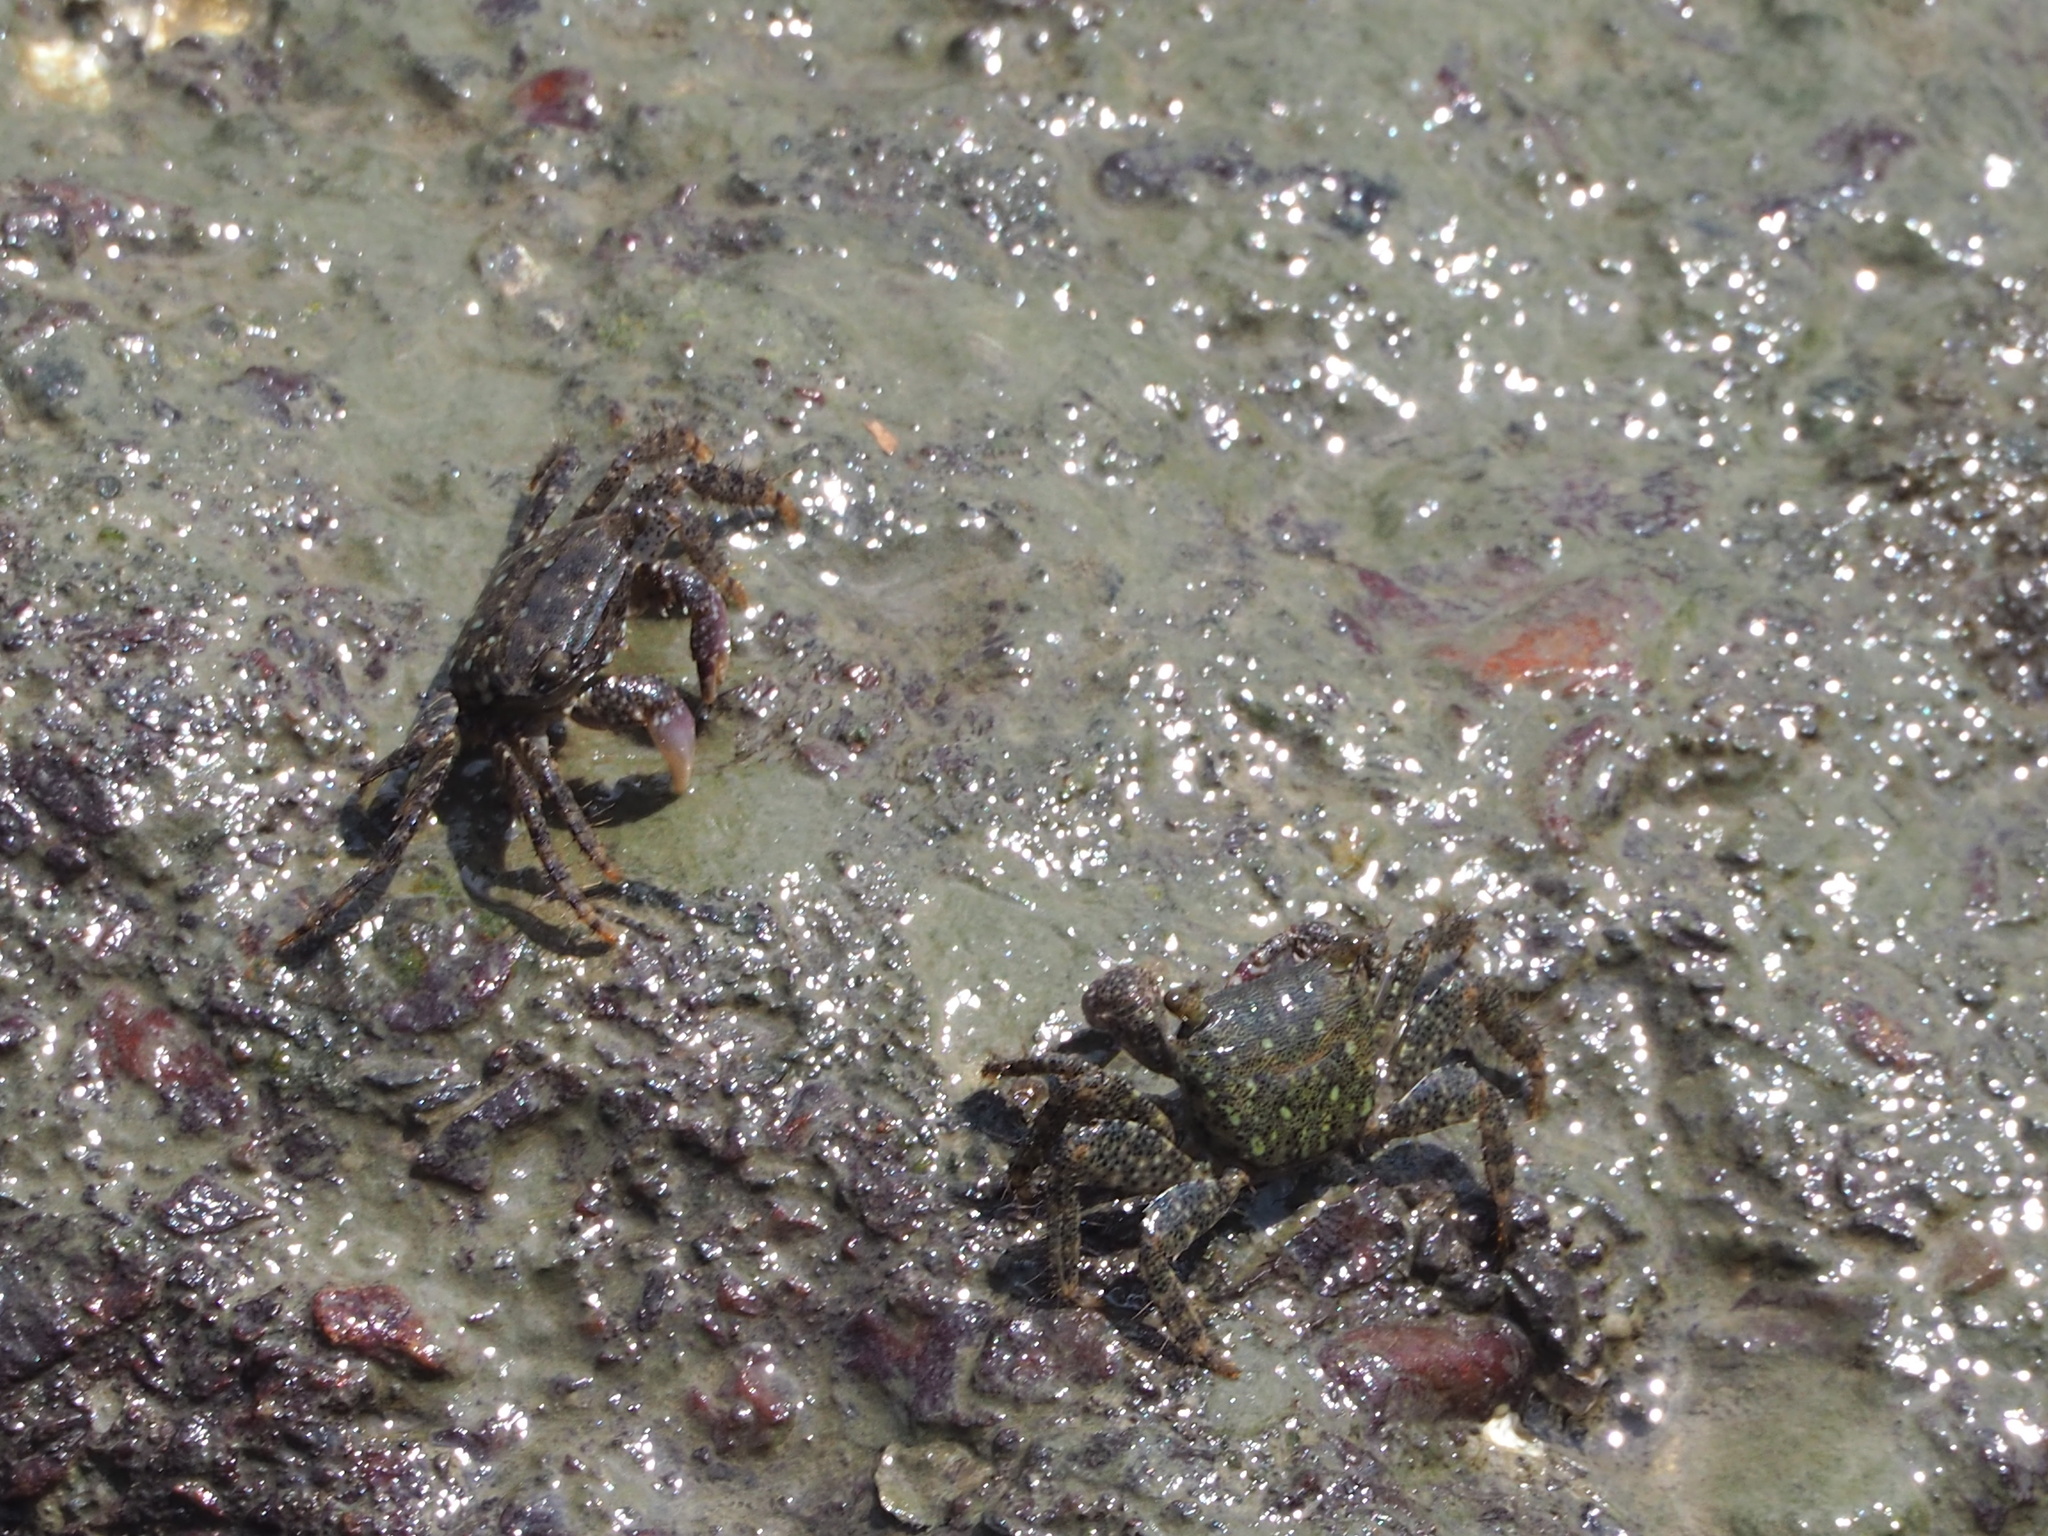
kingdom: Animalia
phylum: Arthropoda
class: Malacostraca
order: Decapoda
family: Grapsidae
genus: Metopograpsus
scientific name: Metopograpsus thukuhar
